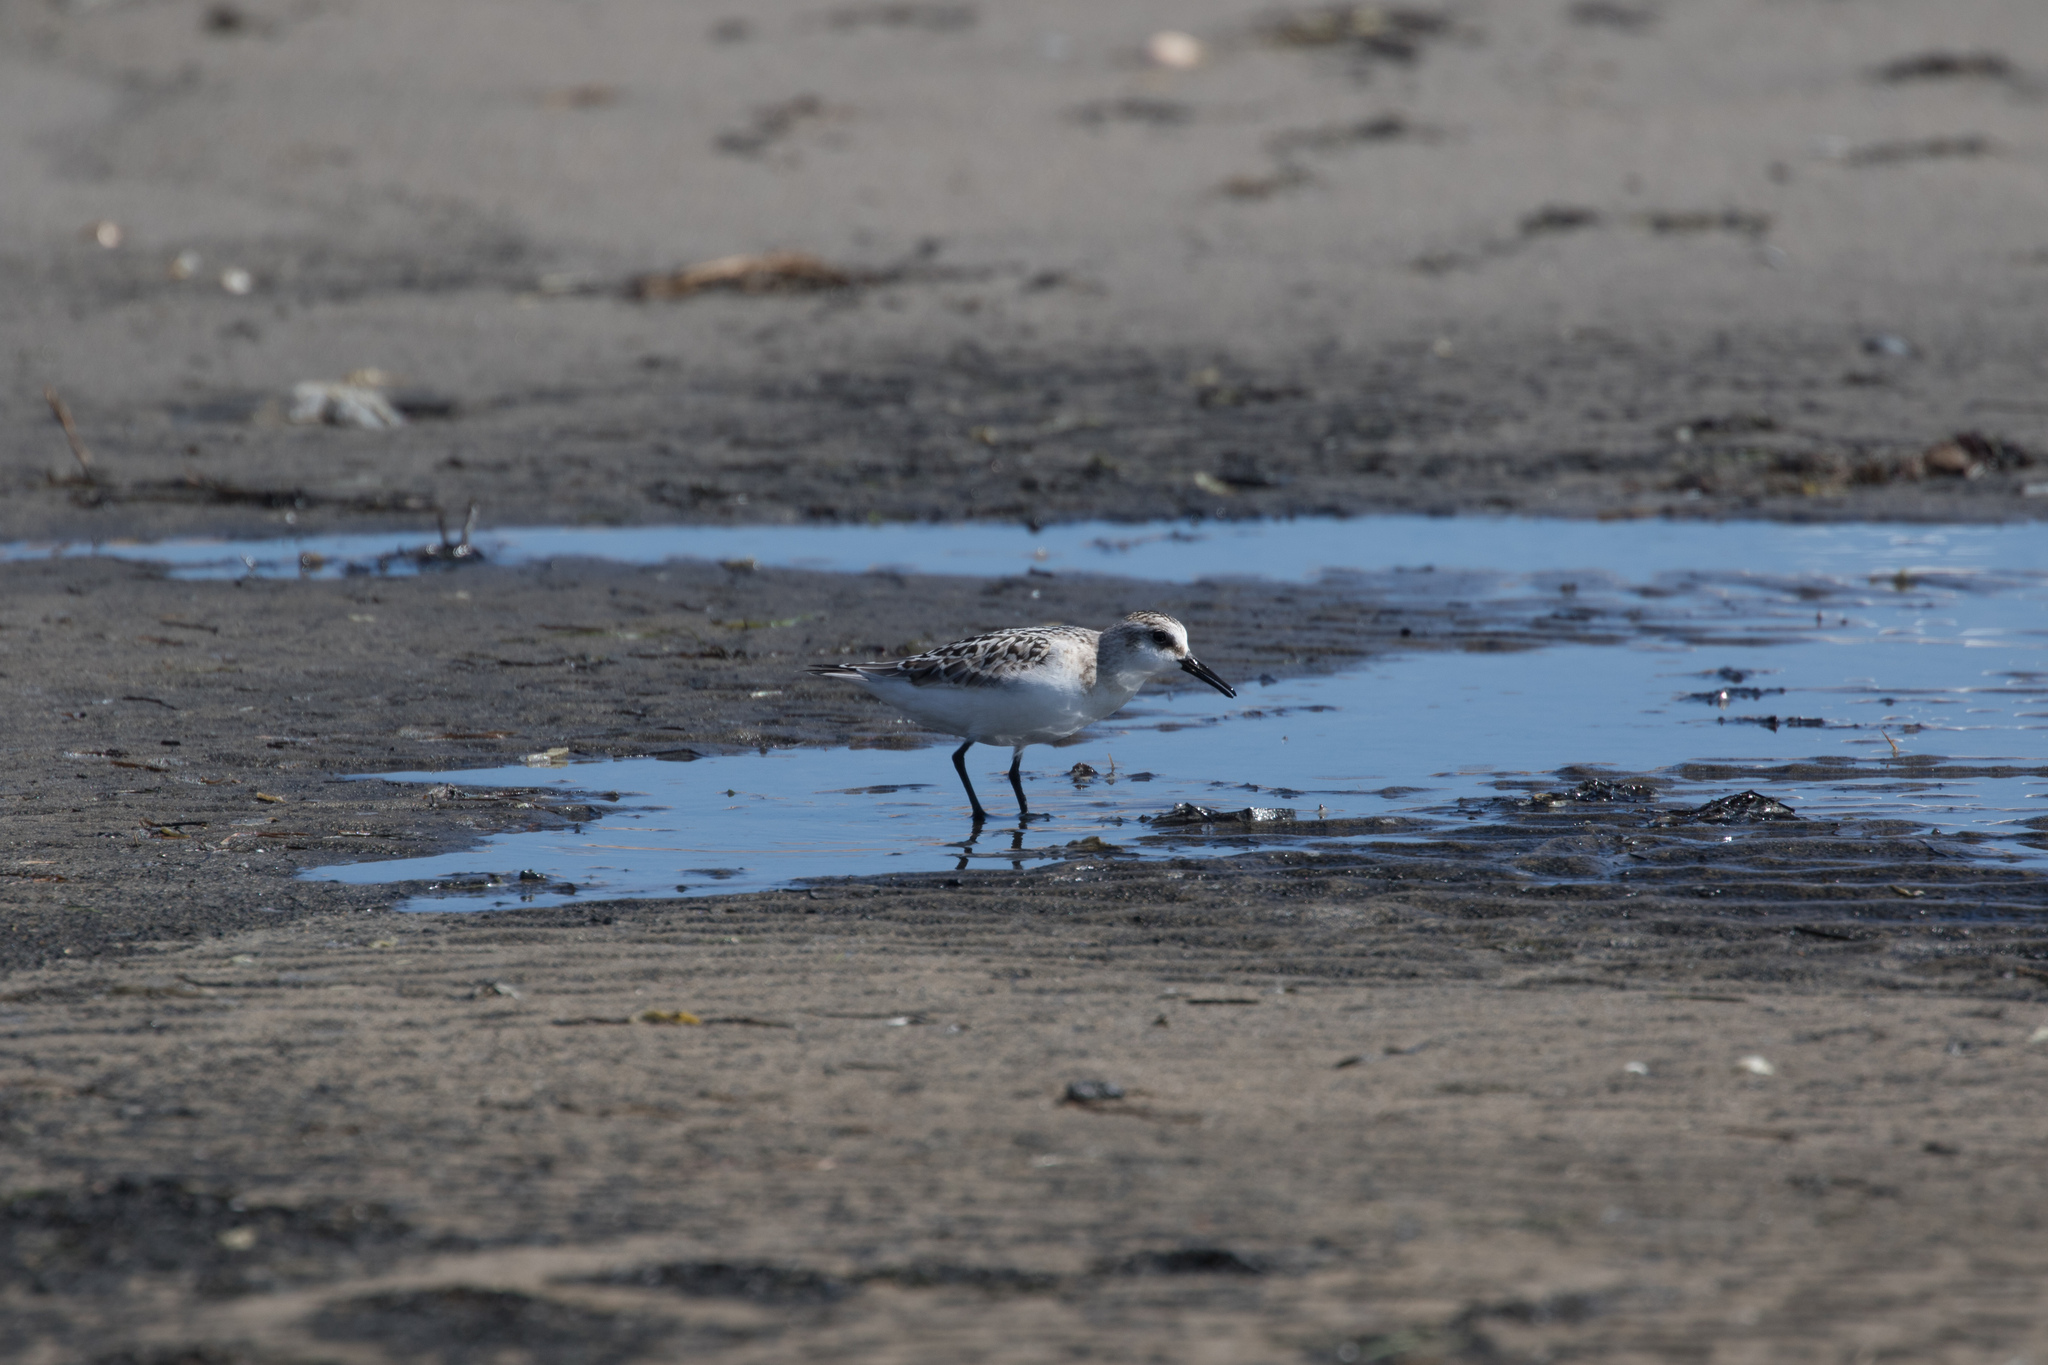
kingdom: Animalia
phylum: Chordata
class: Aves
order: Charadriiformes
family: Scolopacidae
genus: Calidris
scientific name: Calidris alba
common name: Sanderling
